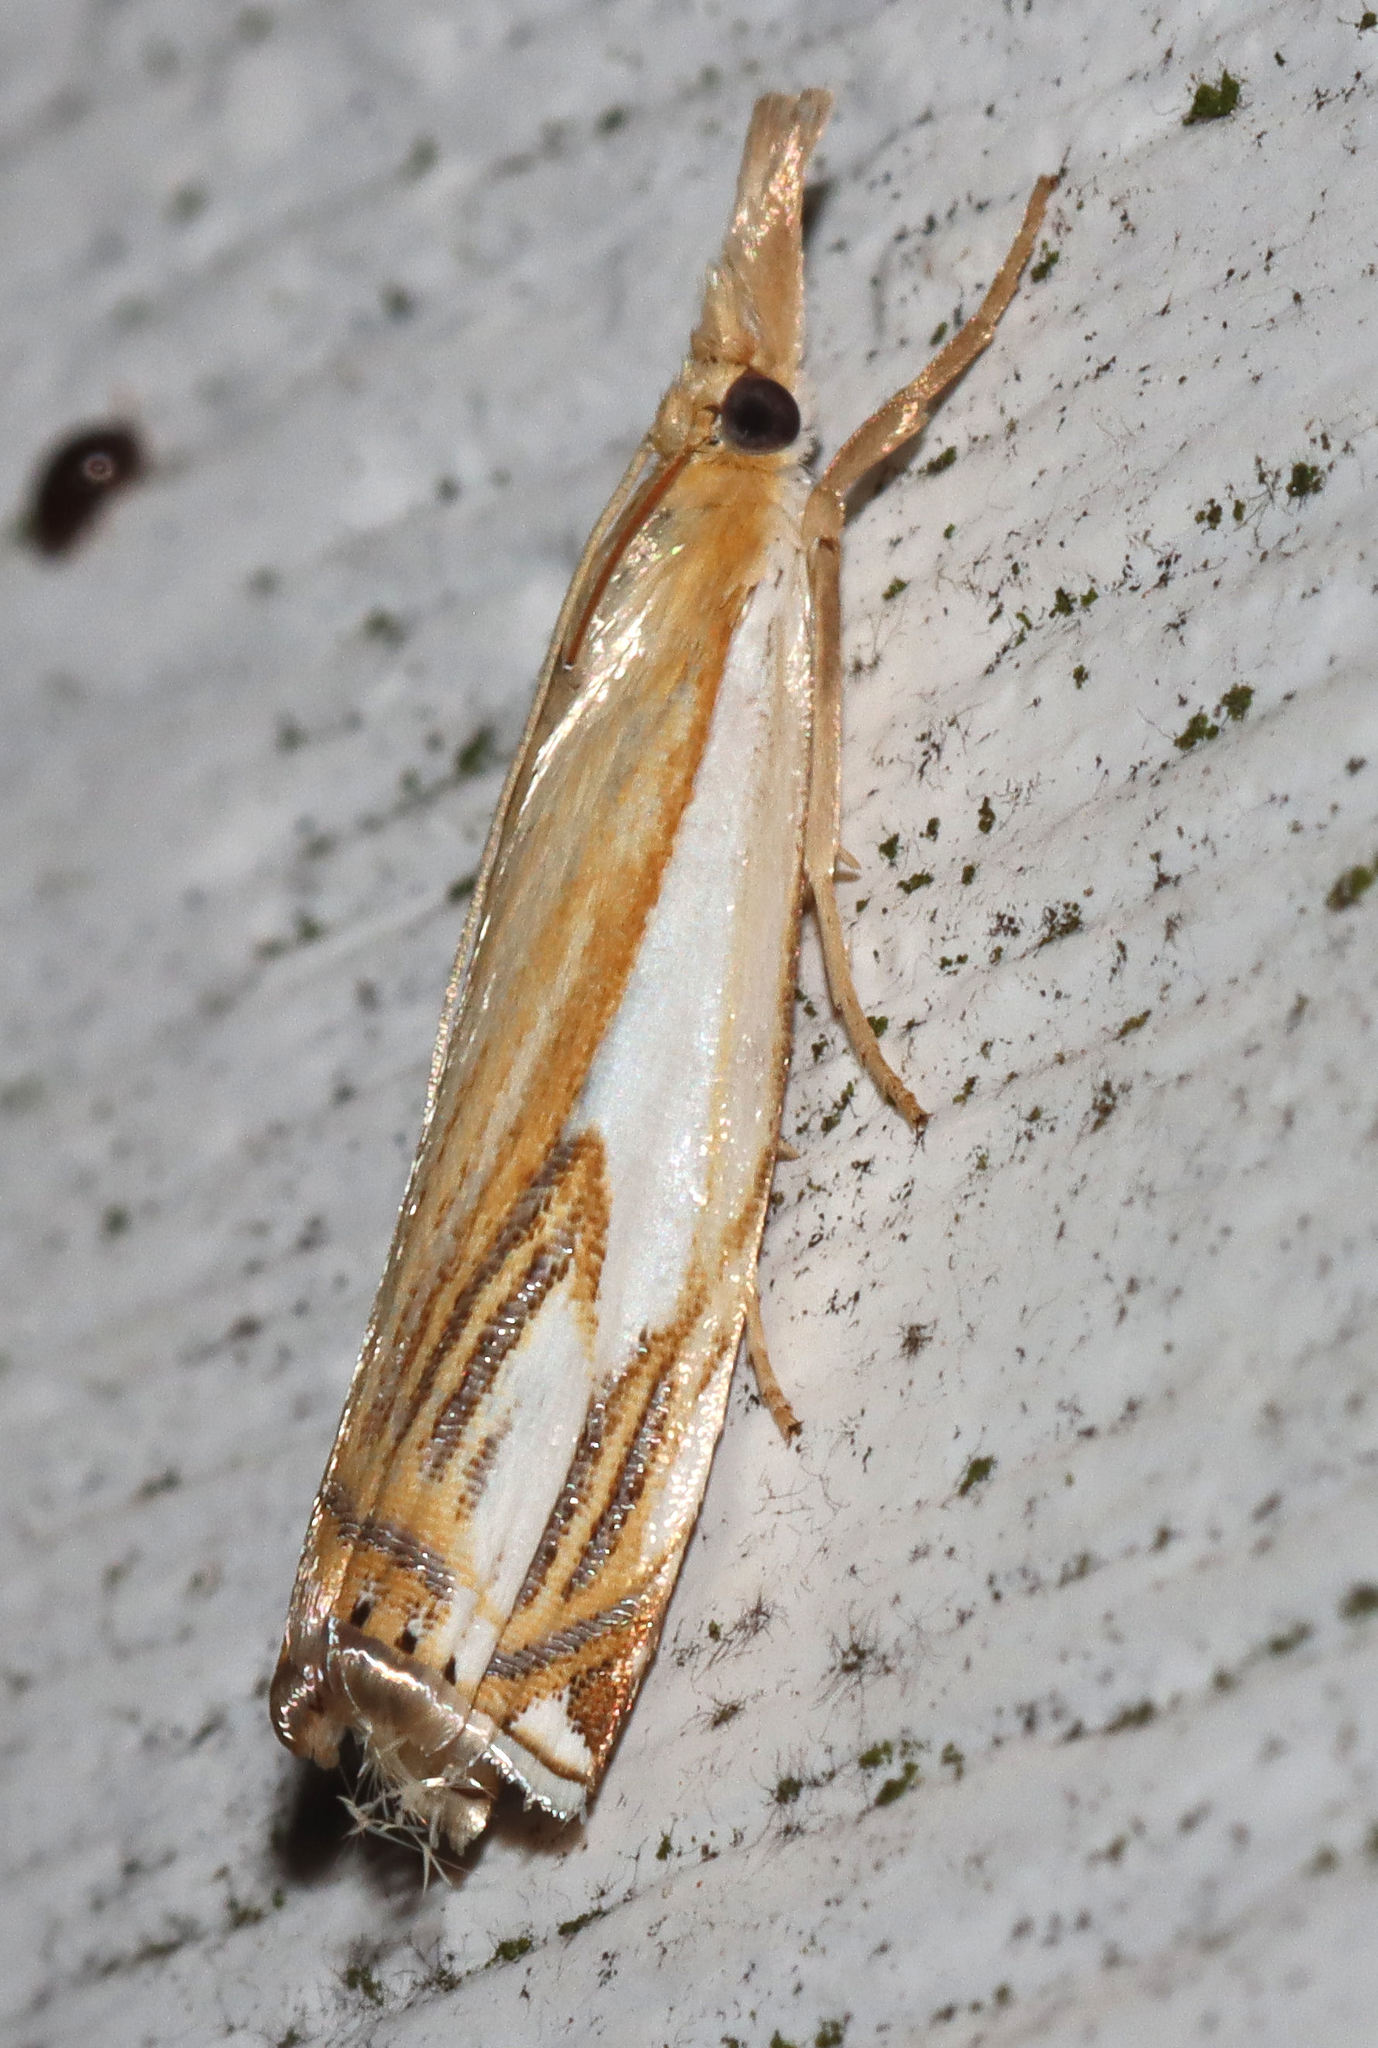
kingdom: Animalia
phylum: Arthropoda
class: Insecta
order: Lepidoptera
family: Crambidae
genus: Crambus
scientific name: Crambus agitatellus
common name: Double-banded grass-veneer
